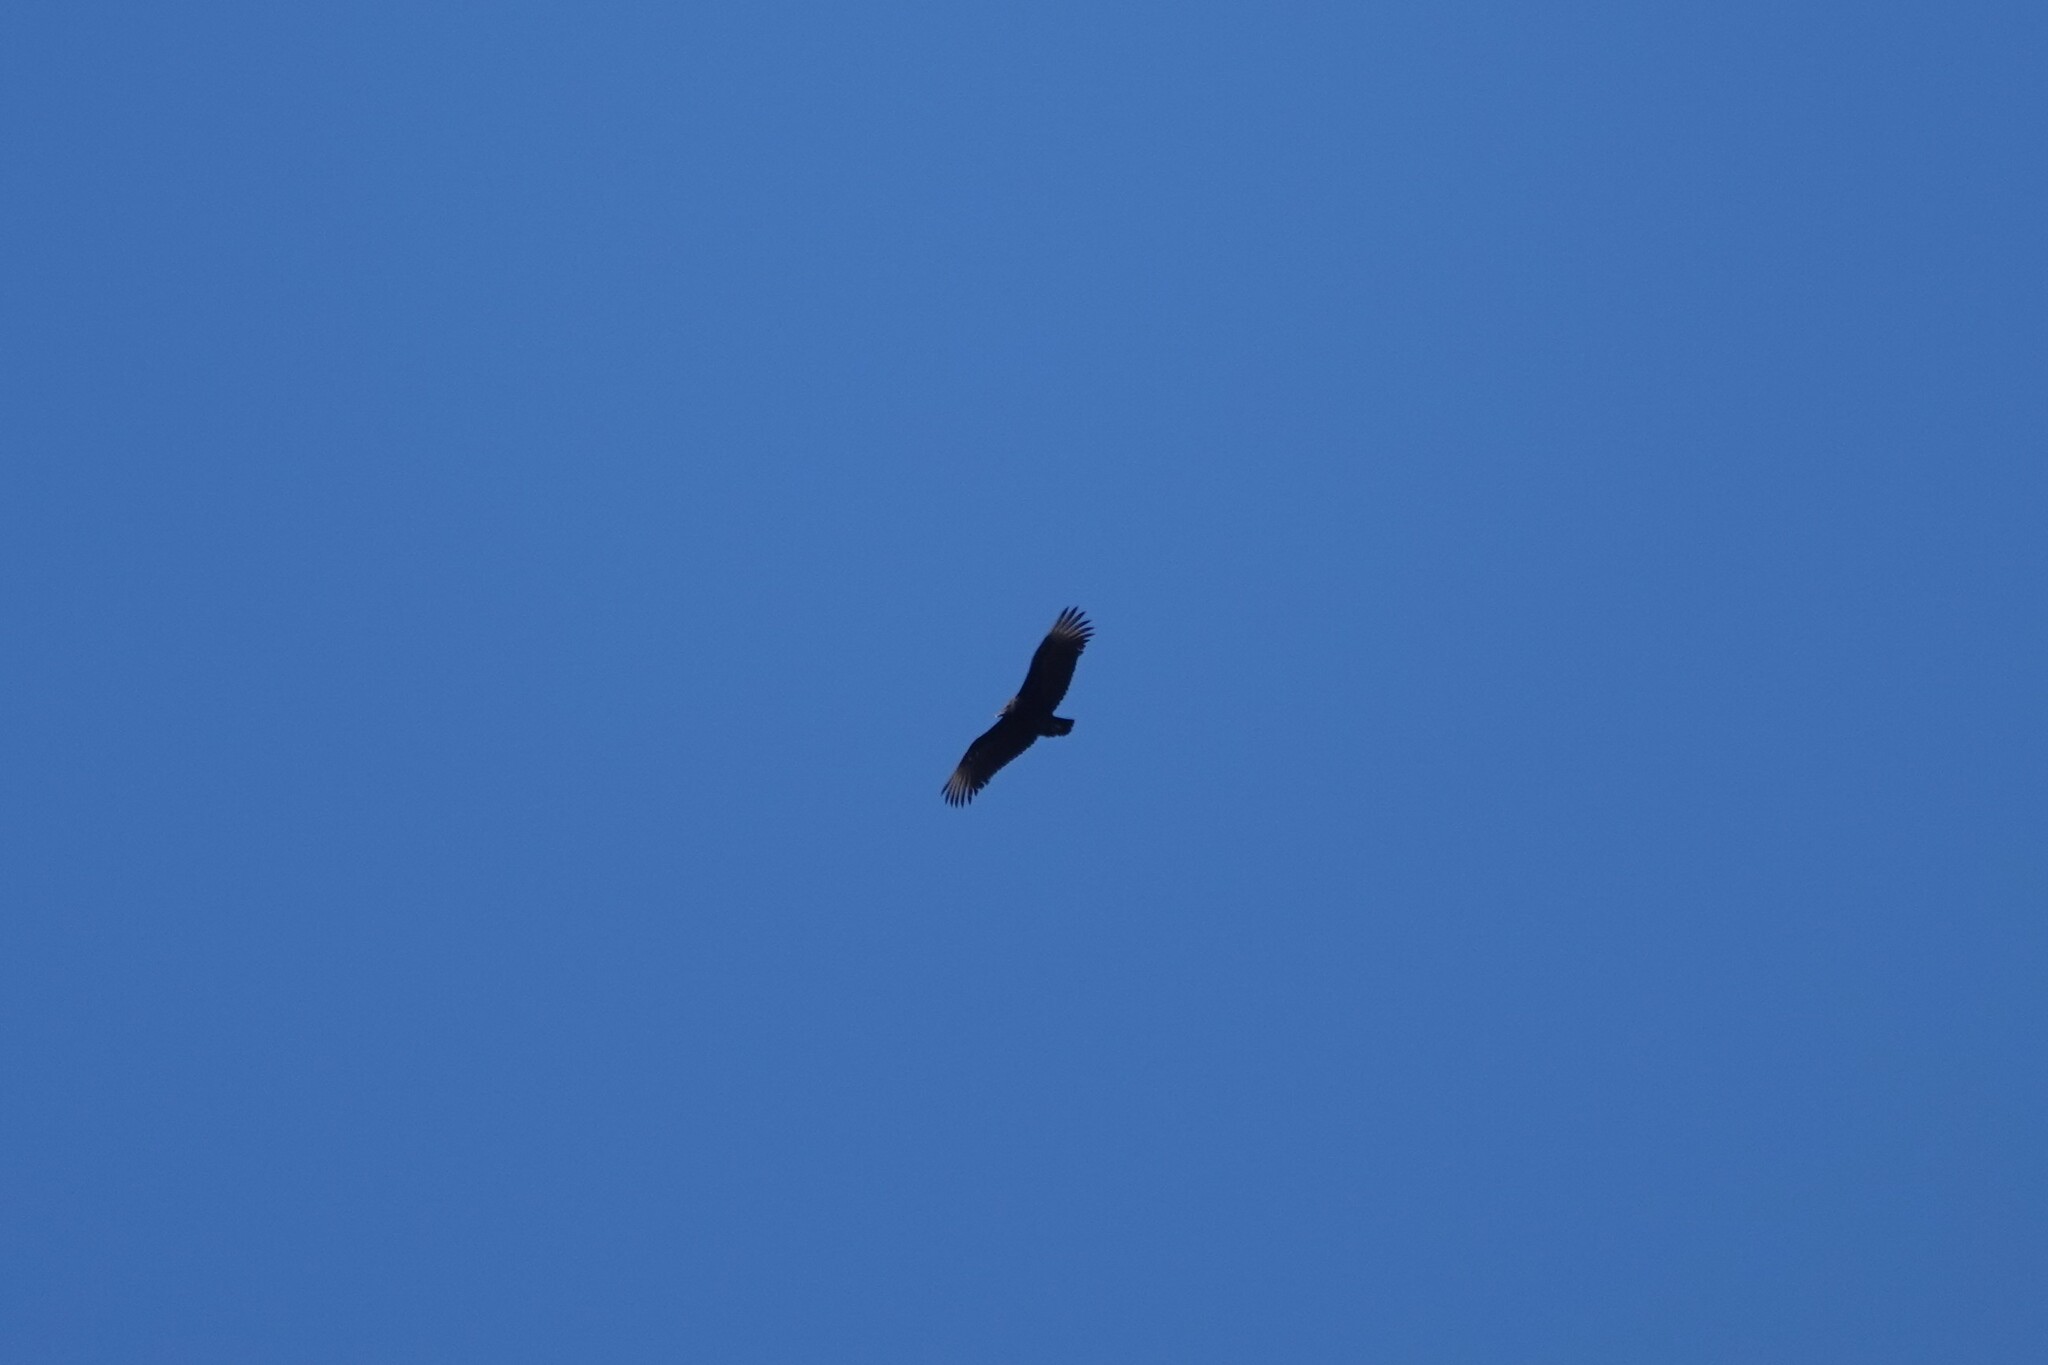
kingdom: Animalia
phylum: Chordata
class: Aves
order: Accipitriformes
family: Cathartidae
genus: Coragyps
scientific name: Coragyps atratus
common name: Black vulture
